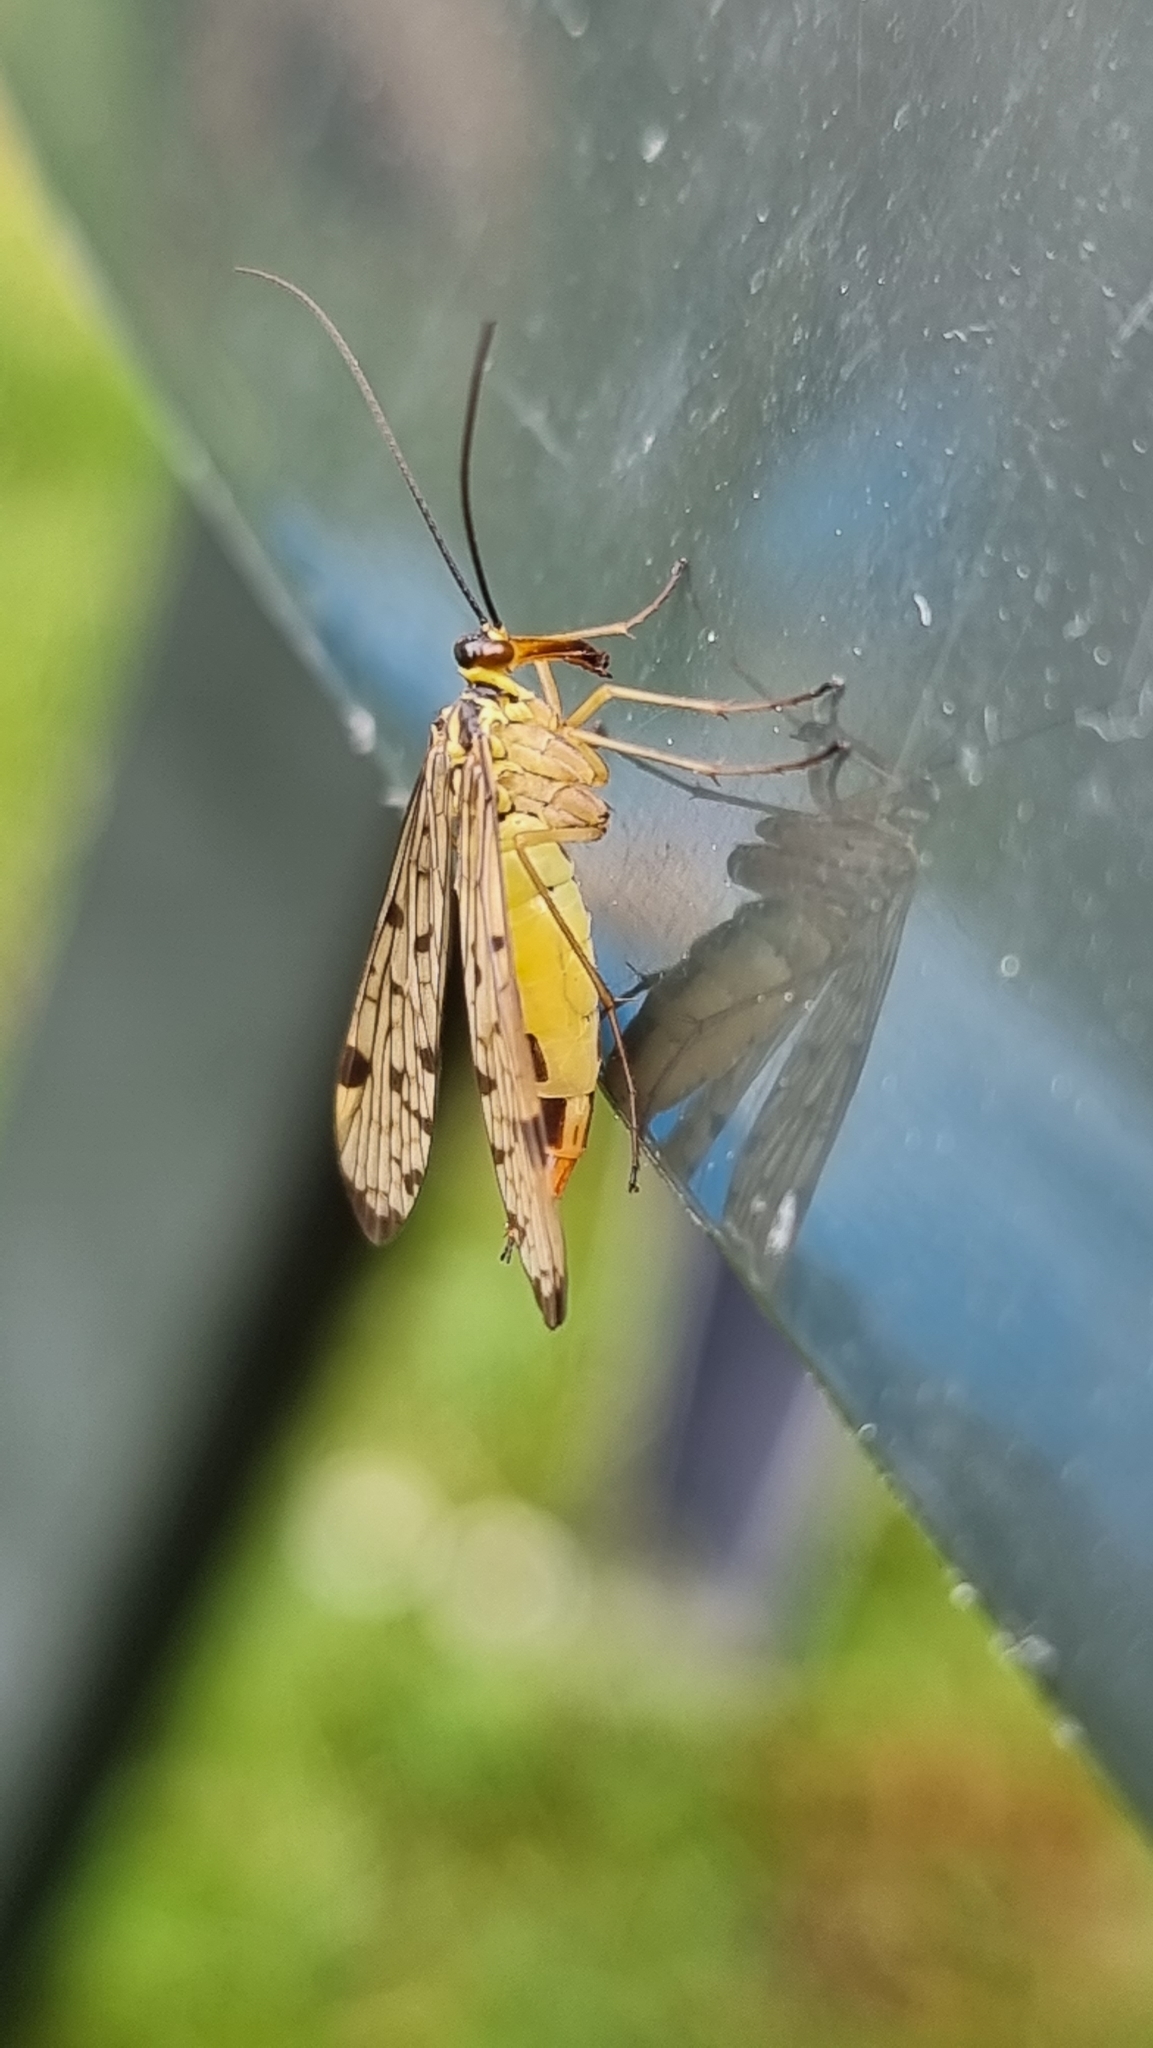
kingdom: Animalia
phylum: Arthropoda
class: Insecta
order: Mecoptera
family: Panorpidae
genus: Panorpa
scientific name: Panorpa germanica
